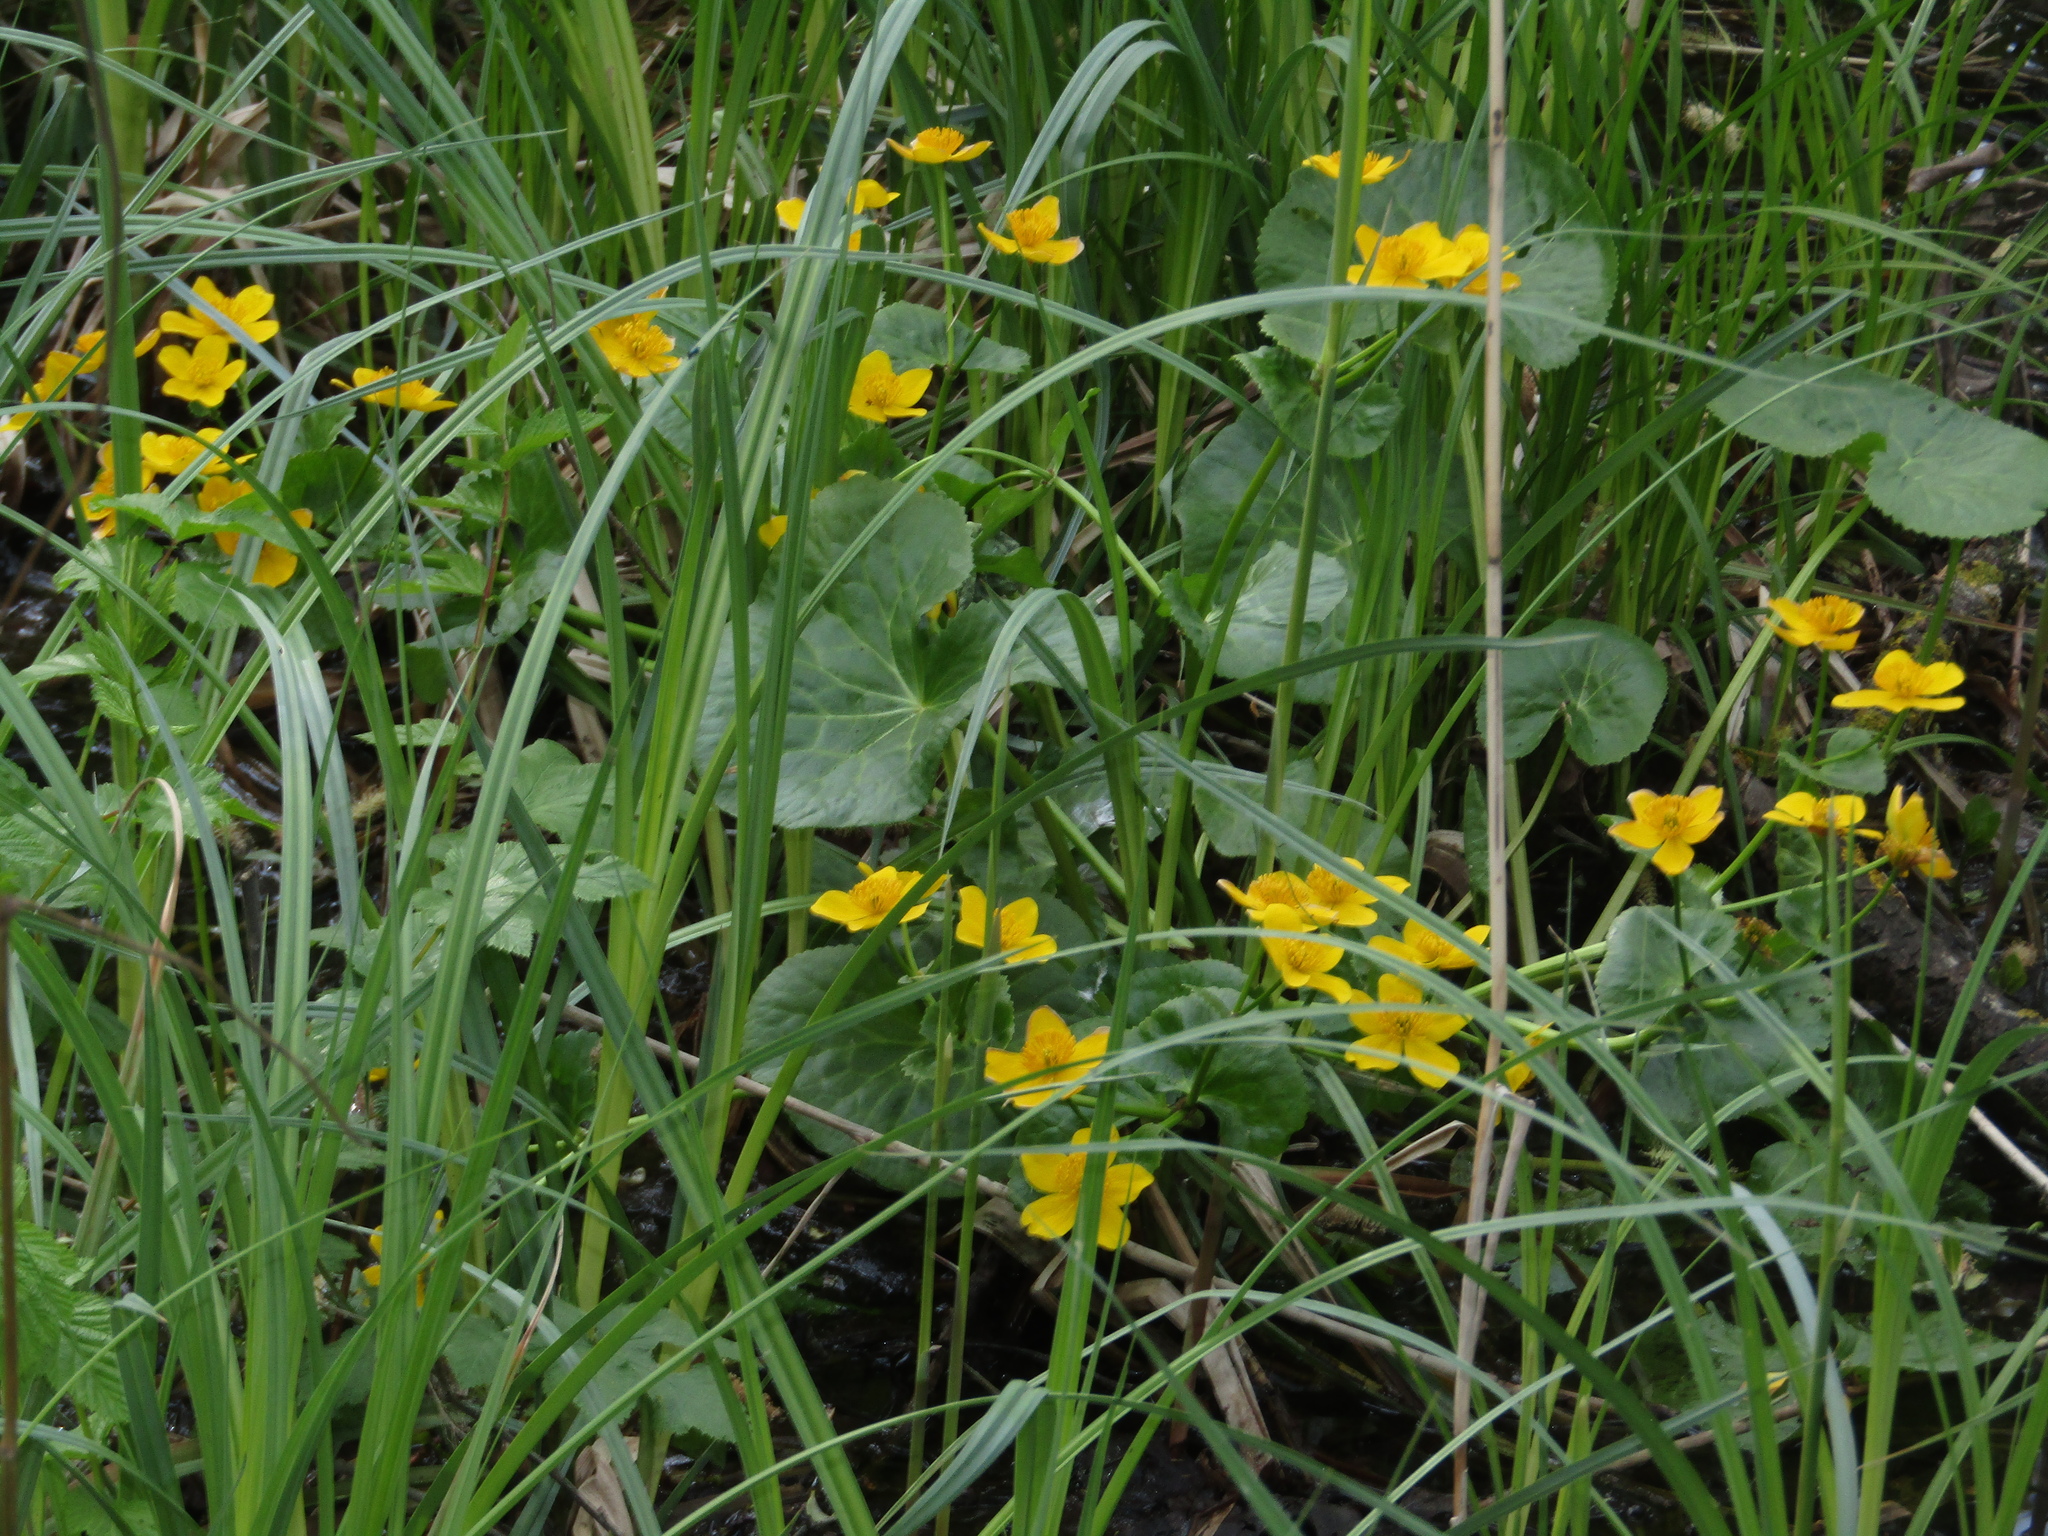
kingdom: Plantae
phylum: Tracheophyta
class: Magnoliopsida
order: Ranunculales
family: Ranunculaceae
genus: Caltha
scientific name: Caltha palustris
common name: Marsh marigold
